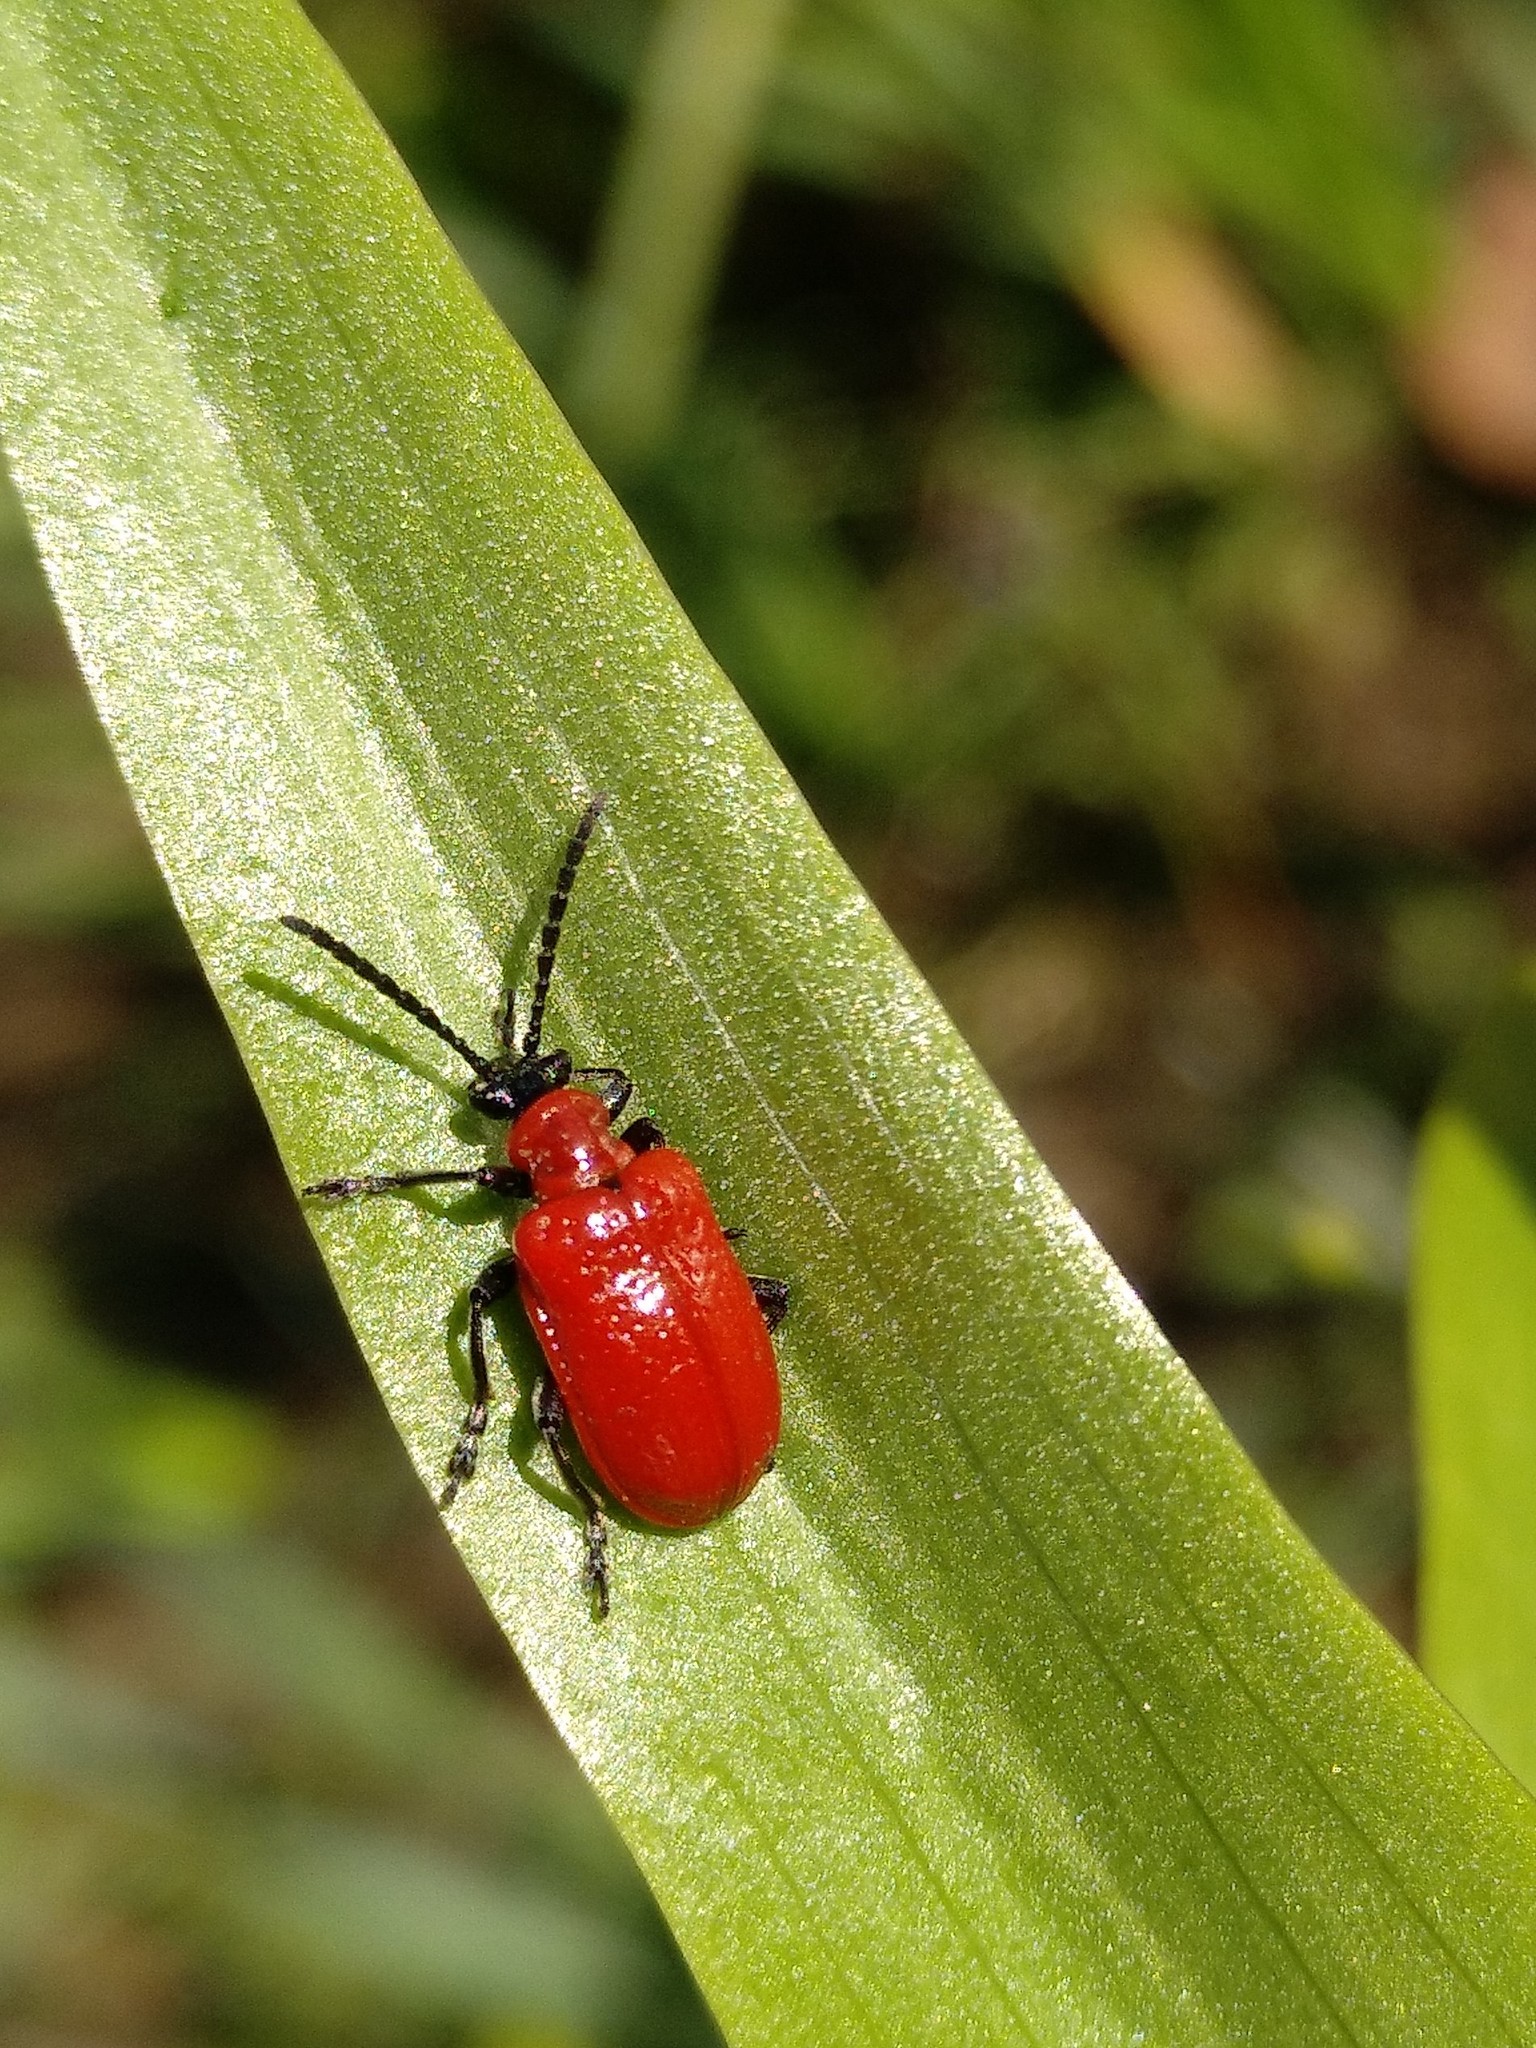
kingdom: Animalia
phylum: Arthropoda
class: Insecta
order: Coleoptera
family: Chrysomelidae
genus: Lilioceris
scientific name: Lilioceris lilii
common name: Lily beetle
